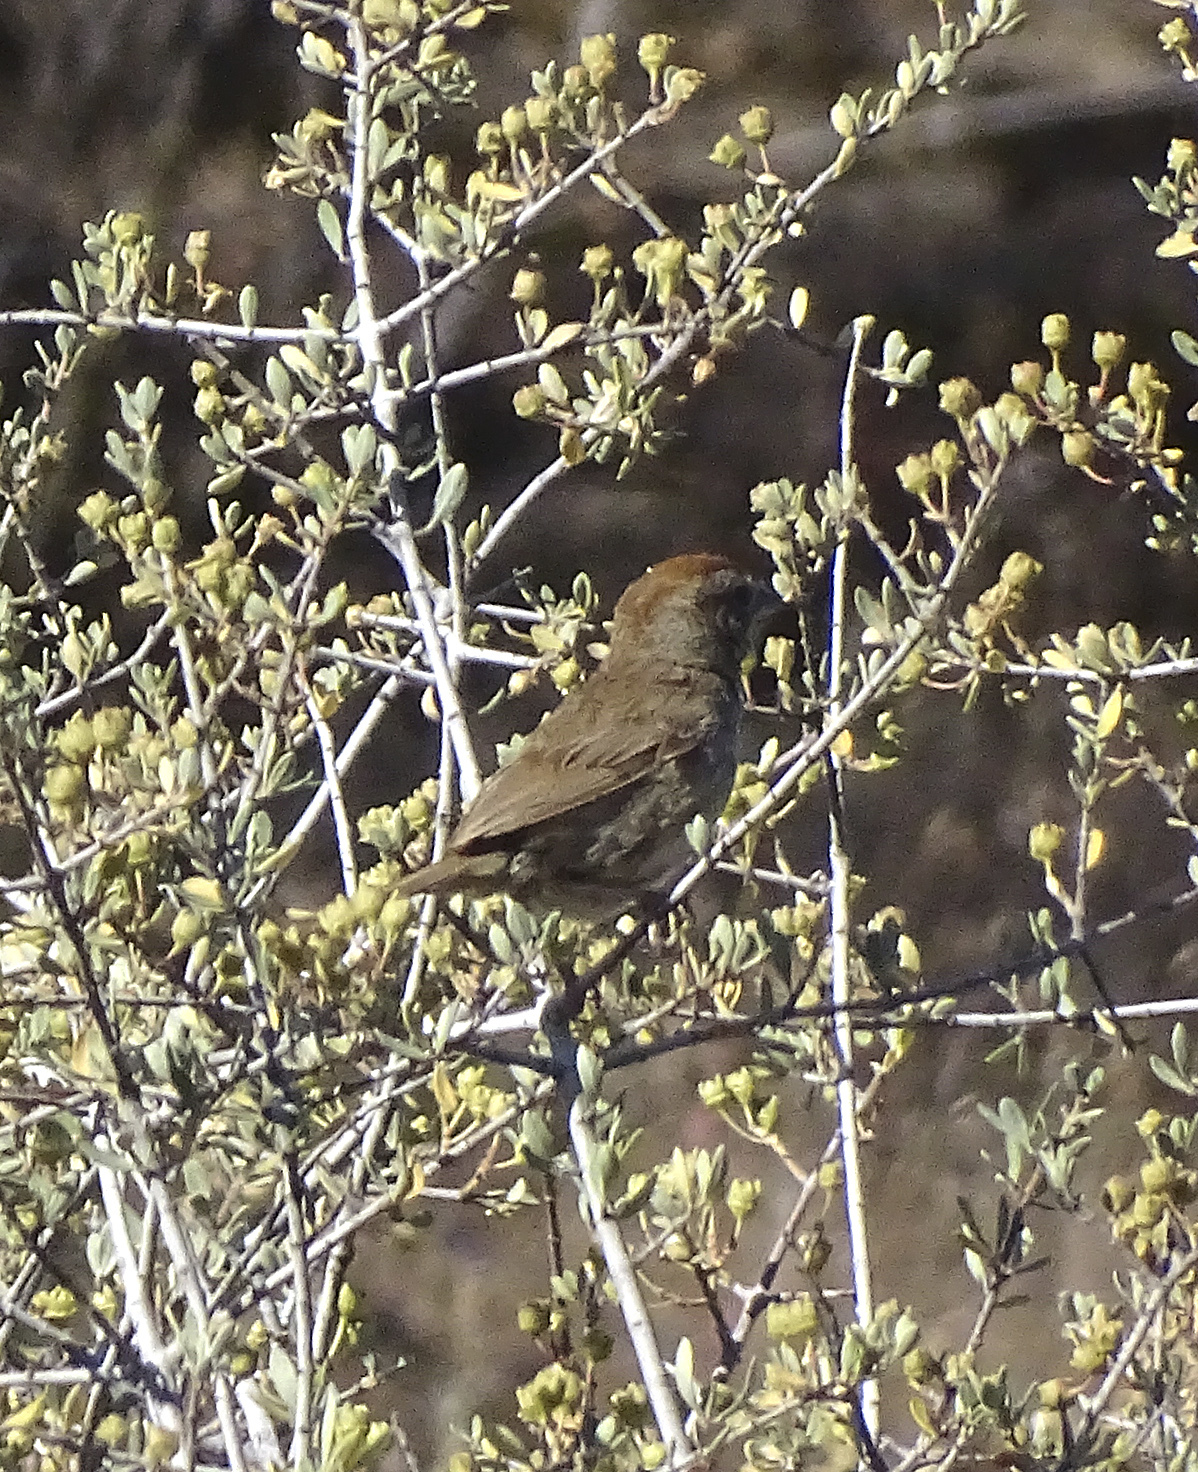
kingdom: Animalia
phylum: Chordata
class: Aves
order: Passeriformes
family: Passerellidae
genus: Aimophila
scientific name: Aimophila ruficeps
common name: Rufous-crowned sparrow
